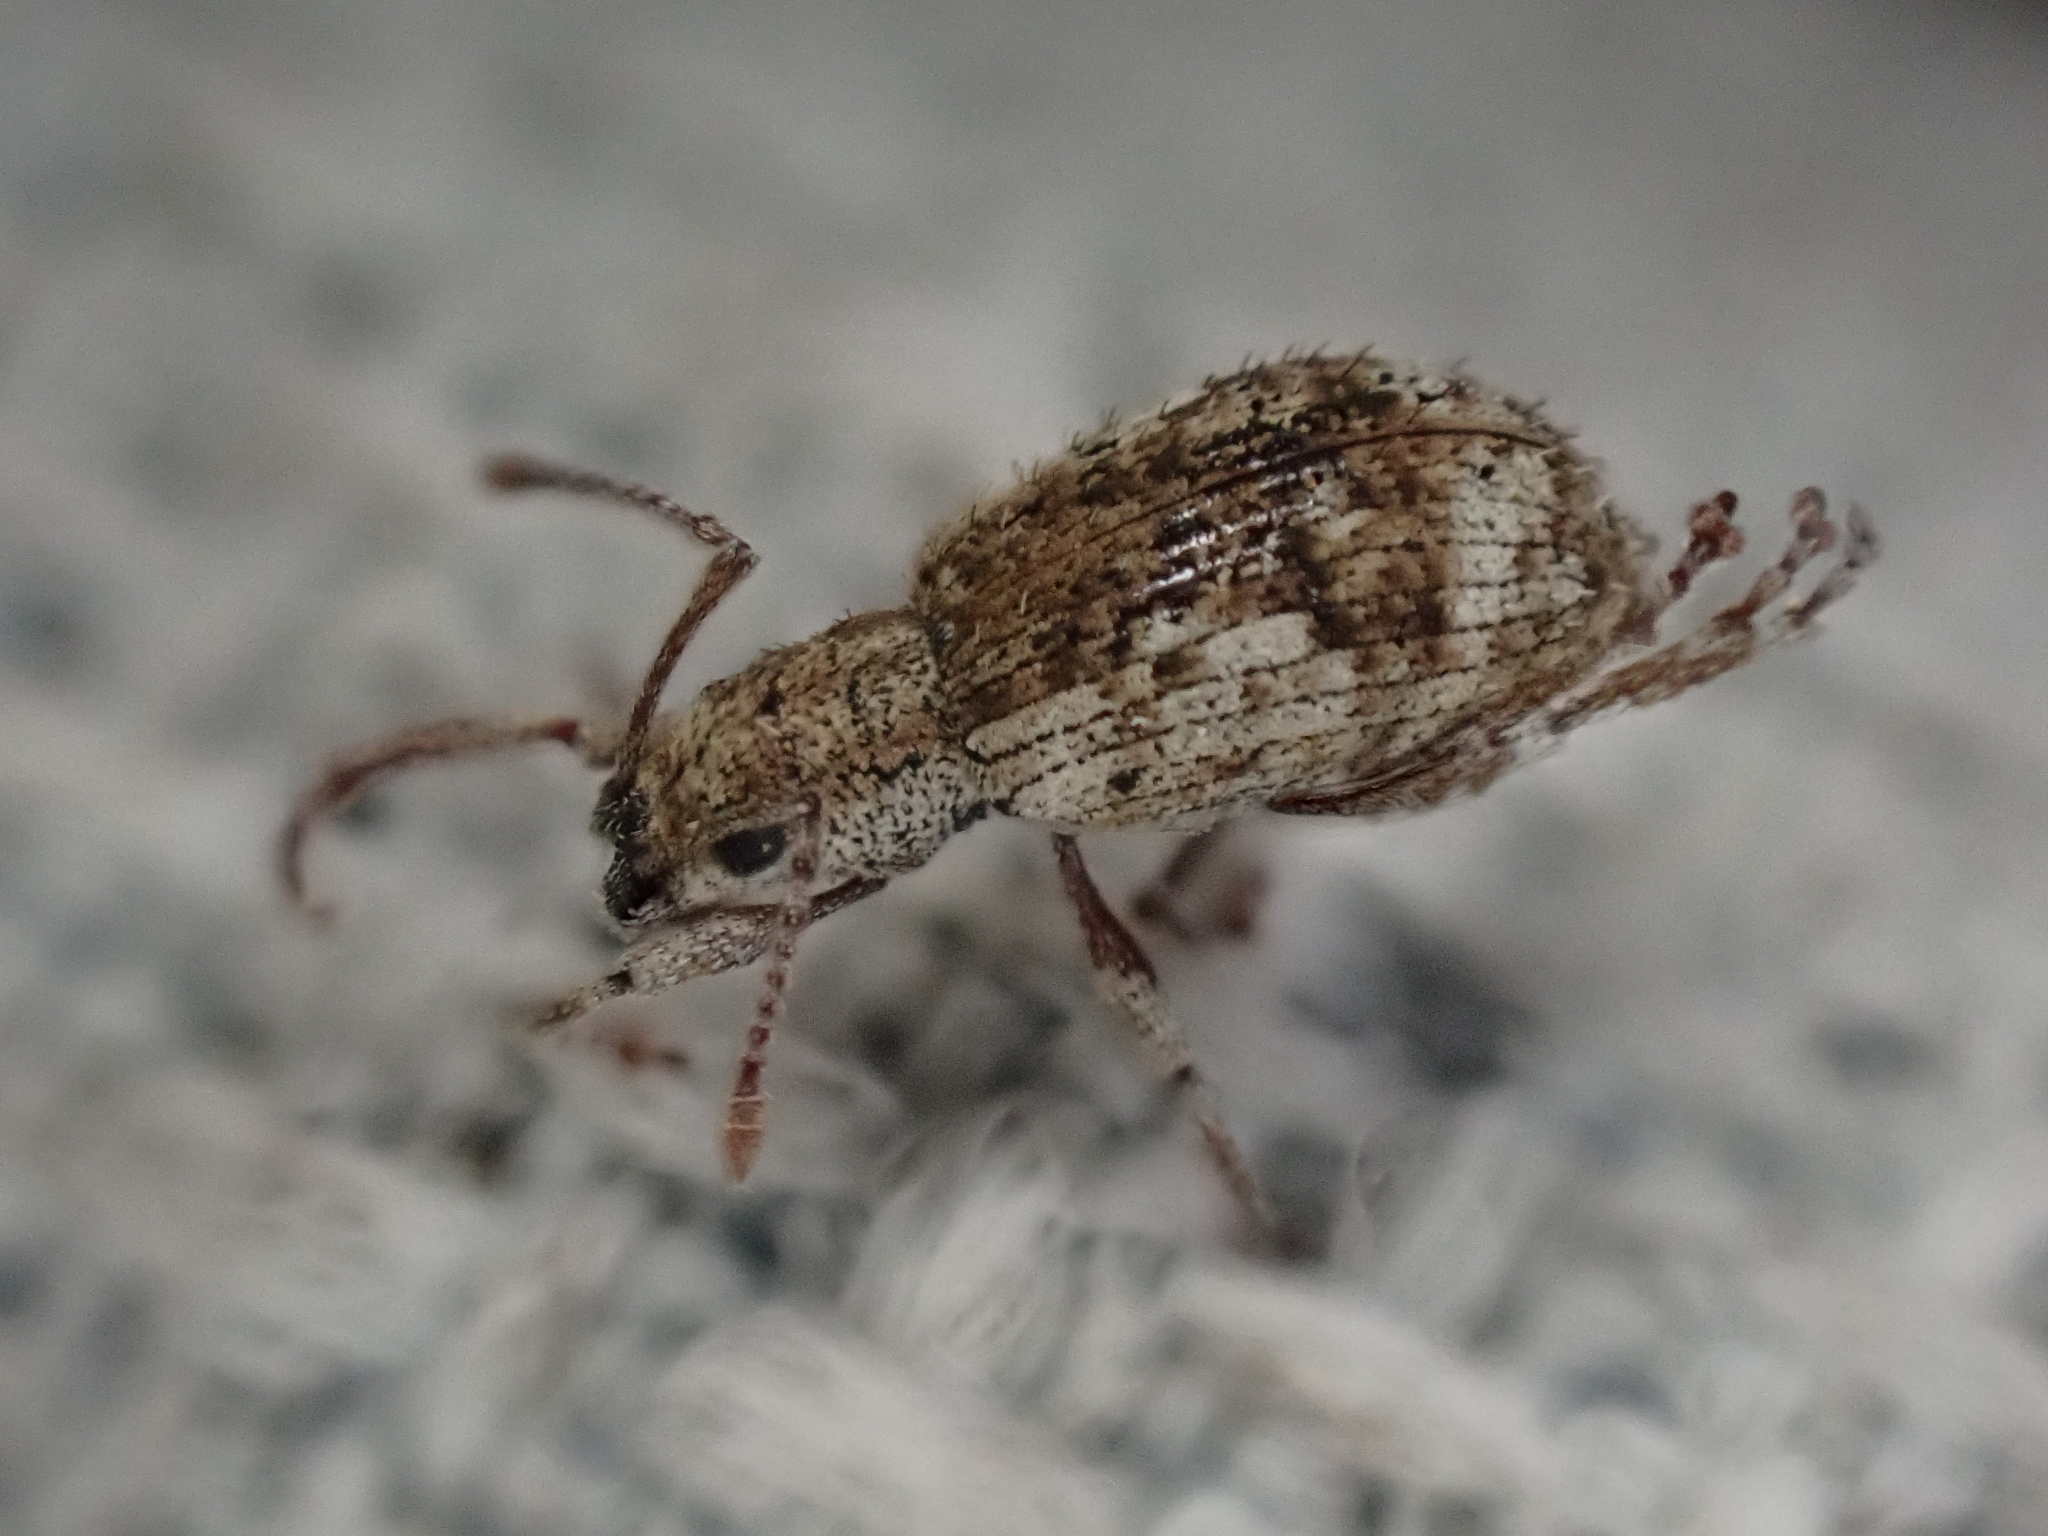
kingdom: Animalia
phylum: Arthropoda
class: Insecta
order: Coleoptera
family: Curculionidae
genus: Pseudoedophrys
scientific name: Pseudoedophrys hilleri
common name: Weevil
